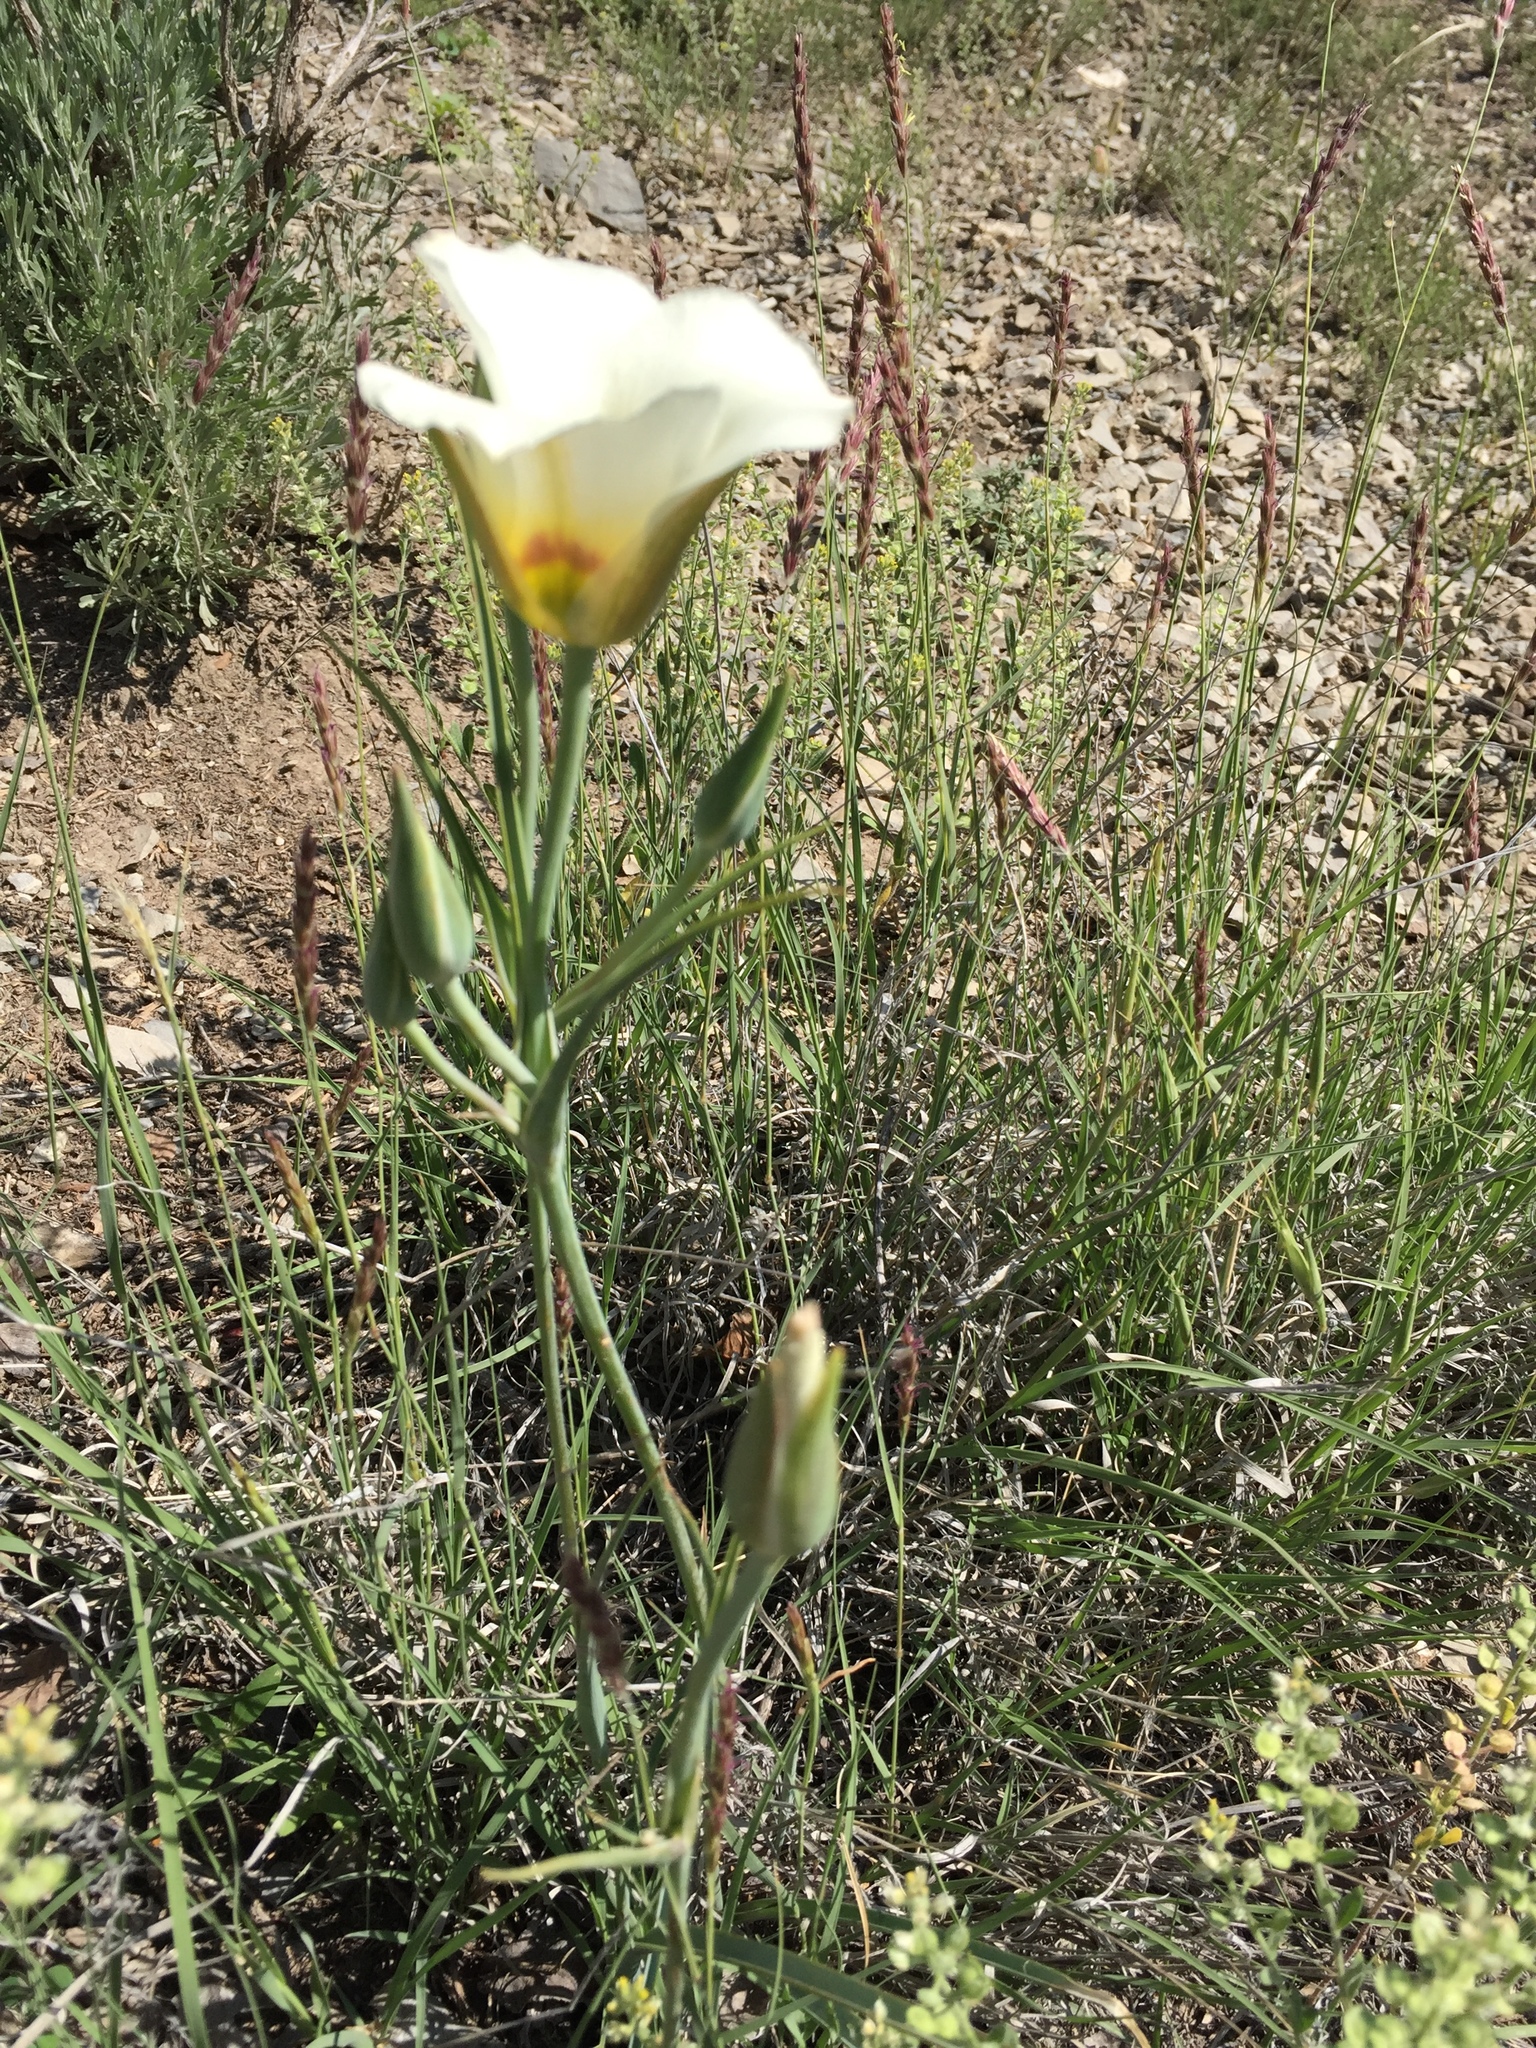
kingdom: Plantae
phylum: Tracheophyta
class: Liliopsida
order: Liliales
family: Liliaceae
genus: Calochortus
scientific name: Calochortus nuttallii
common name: Sego-lily
